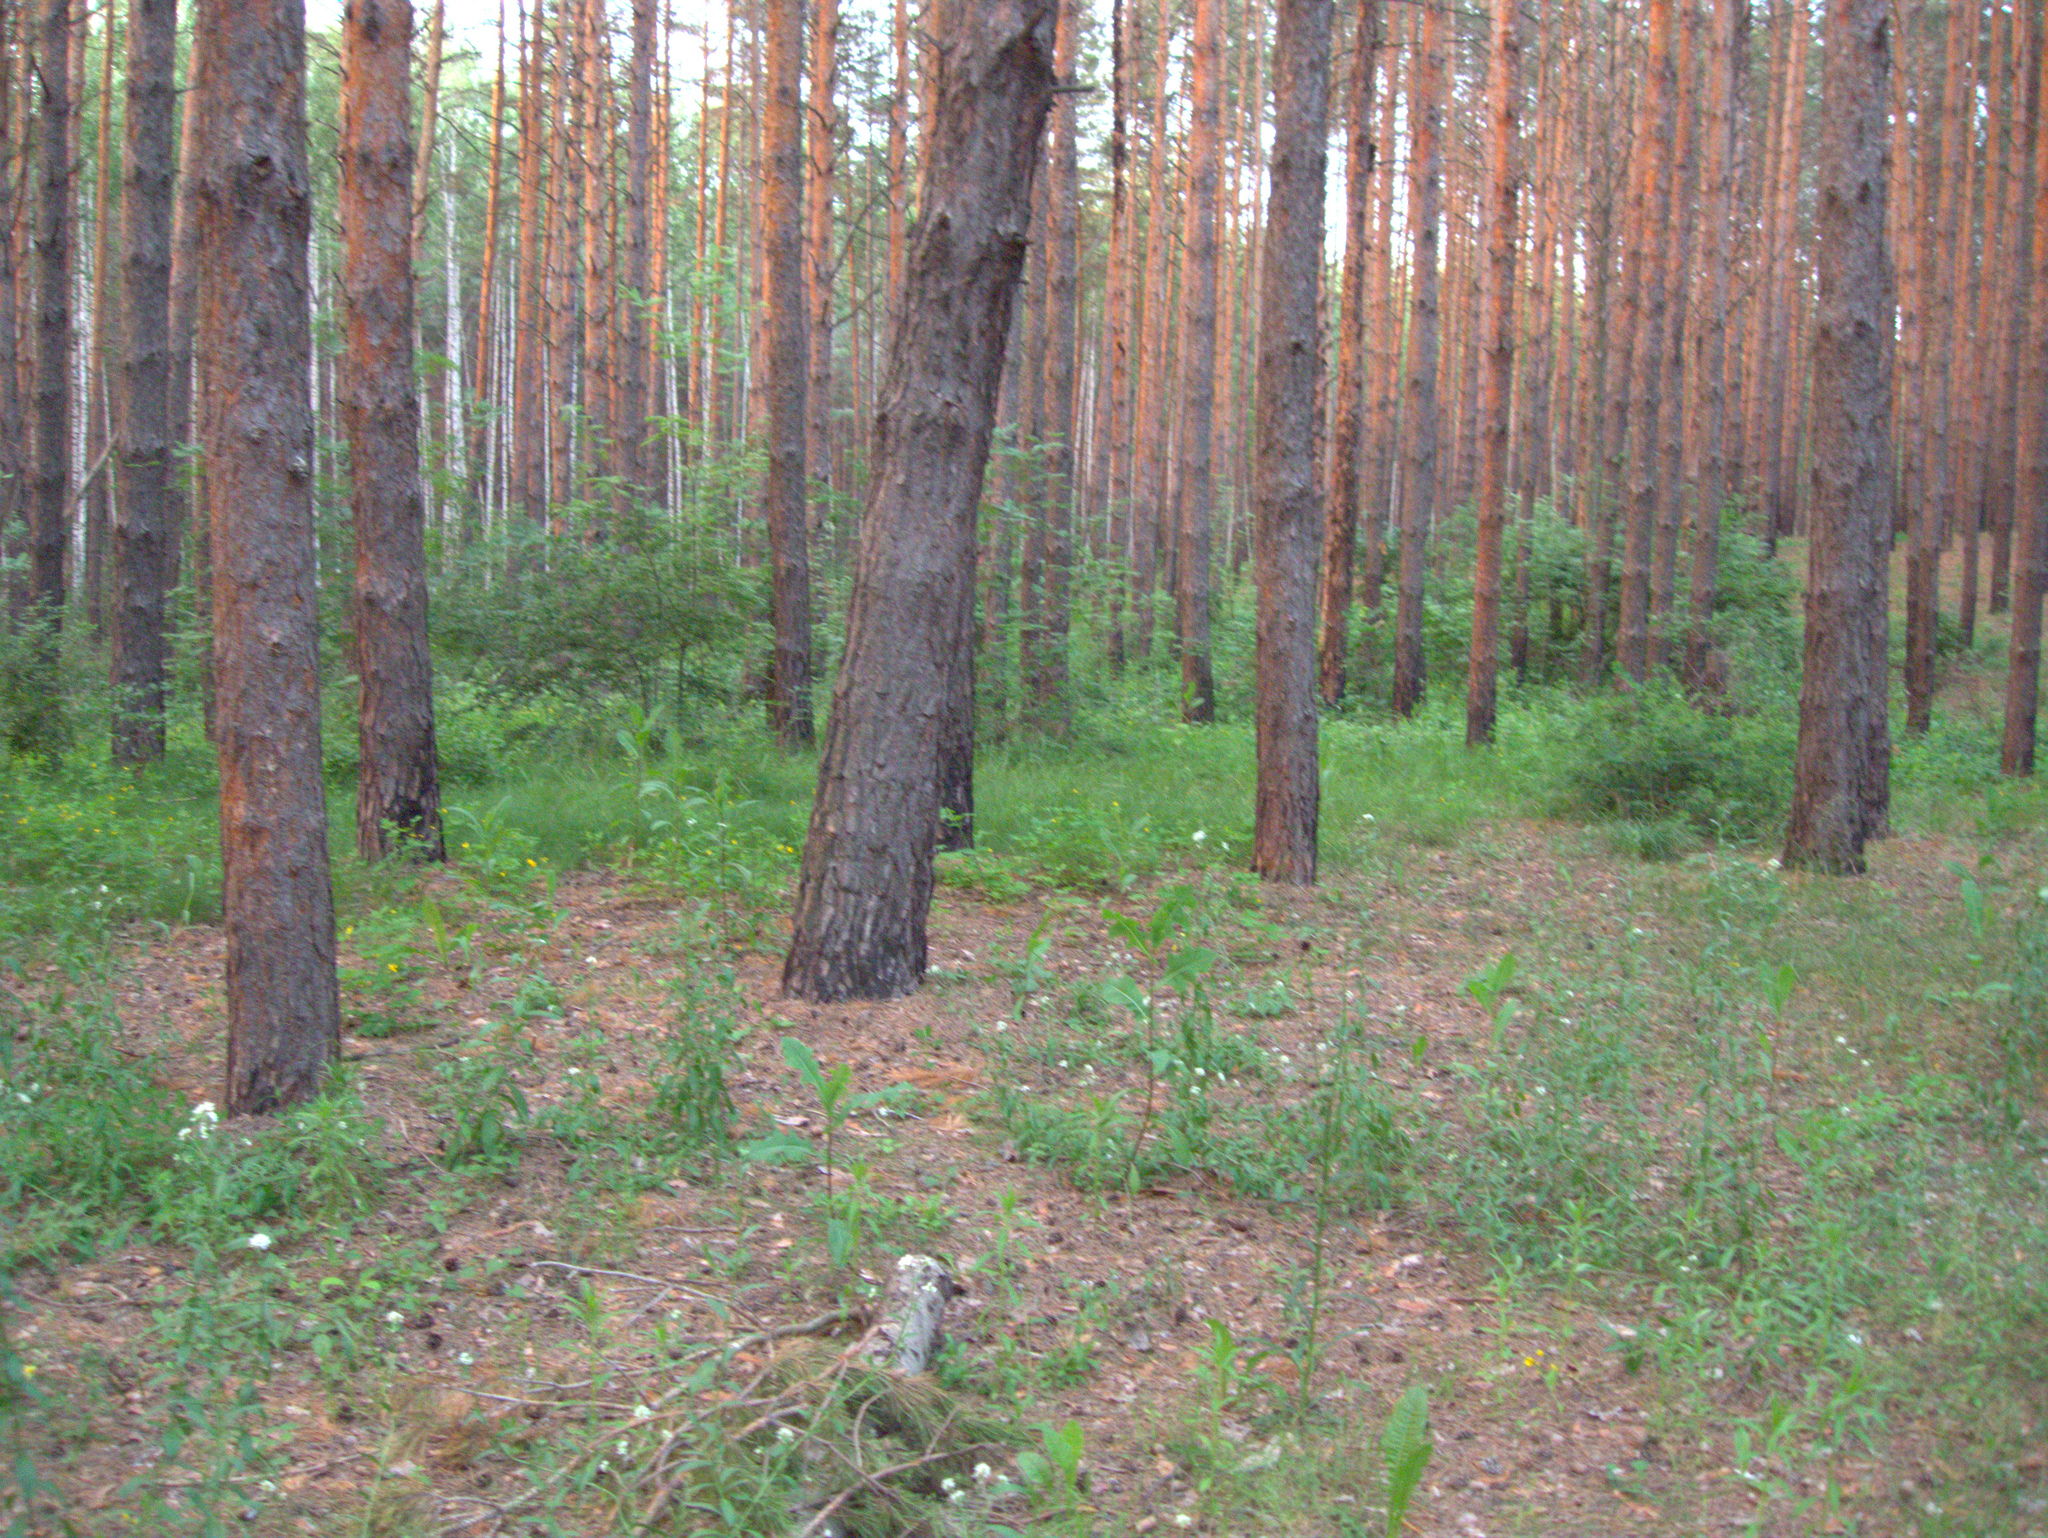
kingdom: Plantae
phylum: Tracheophyta
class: Magnoliopsida
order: Asterales
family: Asteraceae
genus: Lactuca
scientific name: Lactuca serriola
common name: Prickly lettuce
